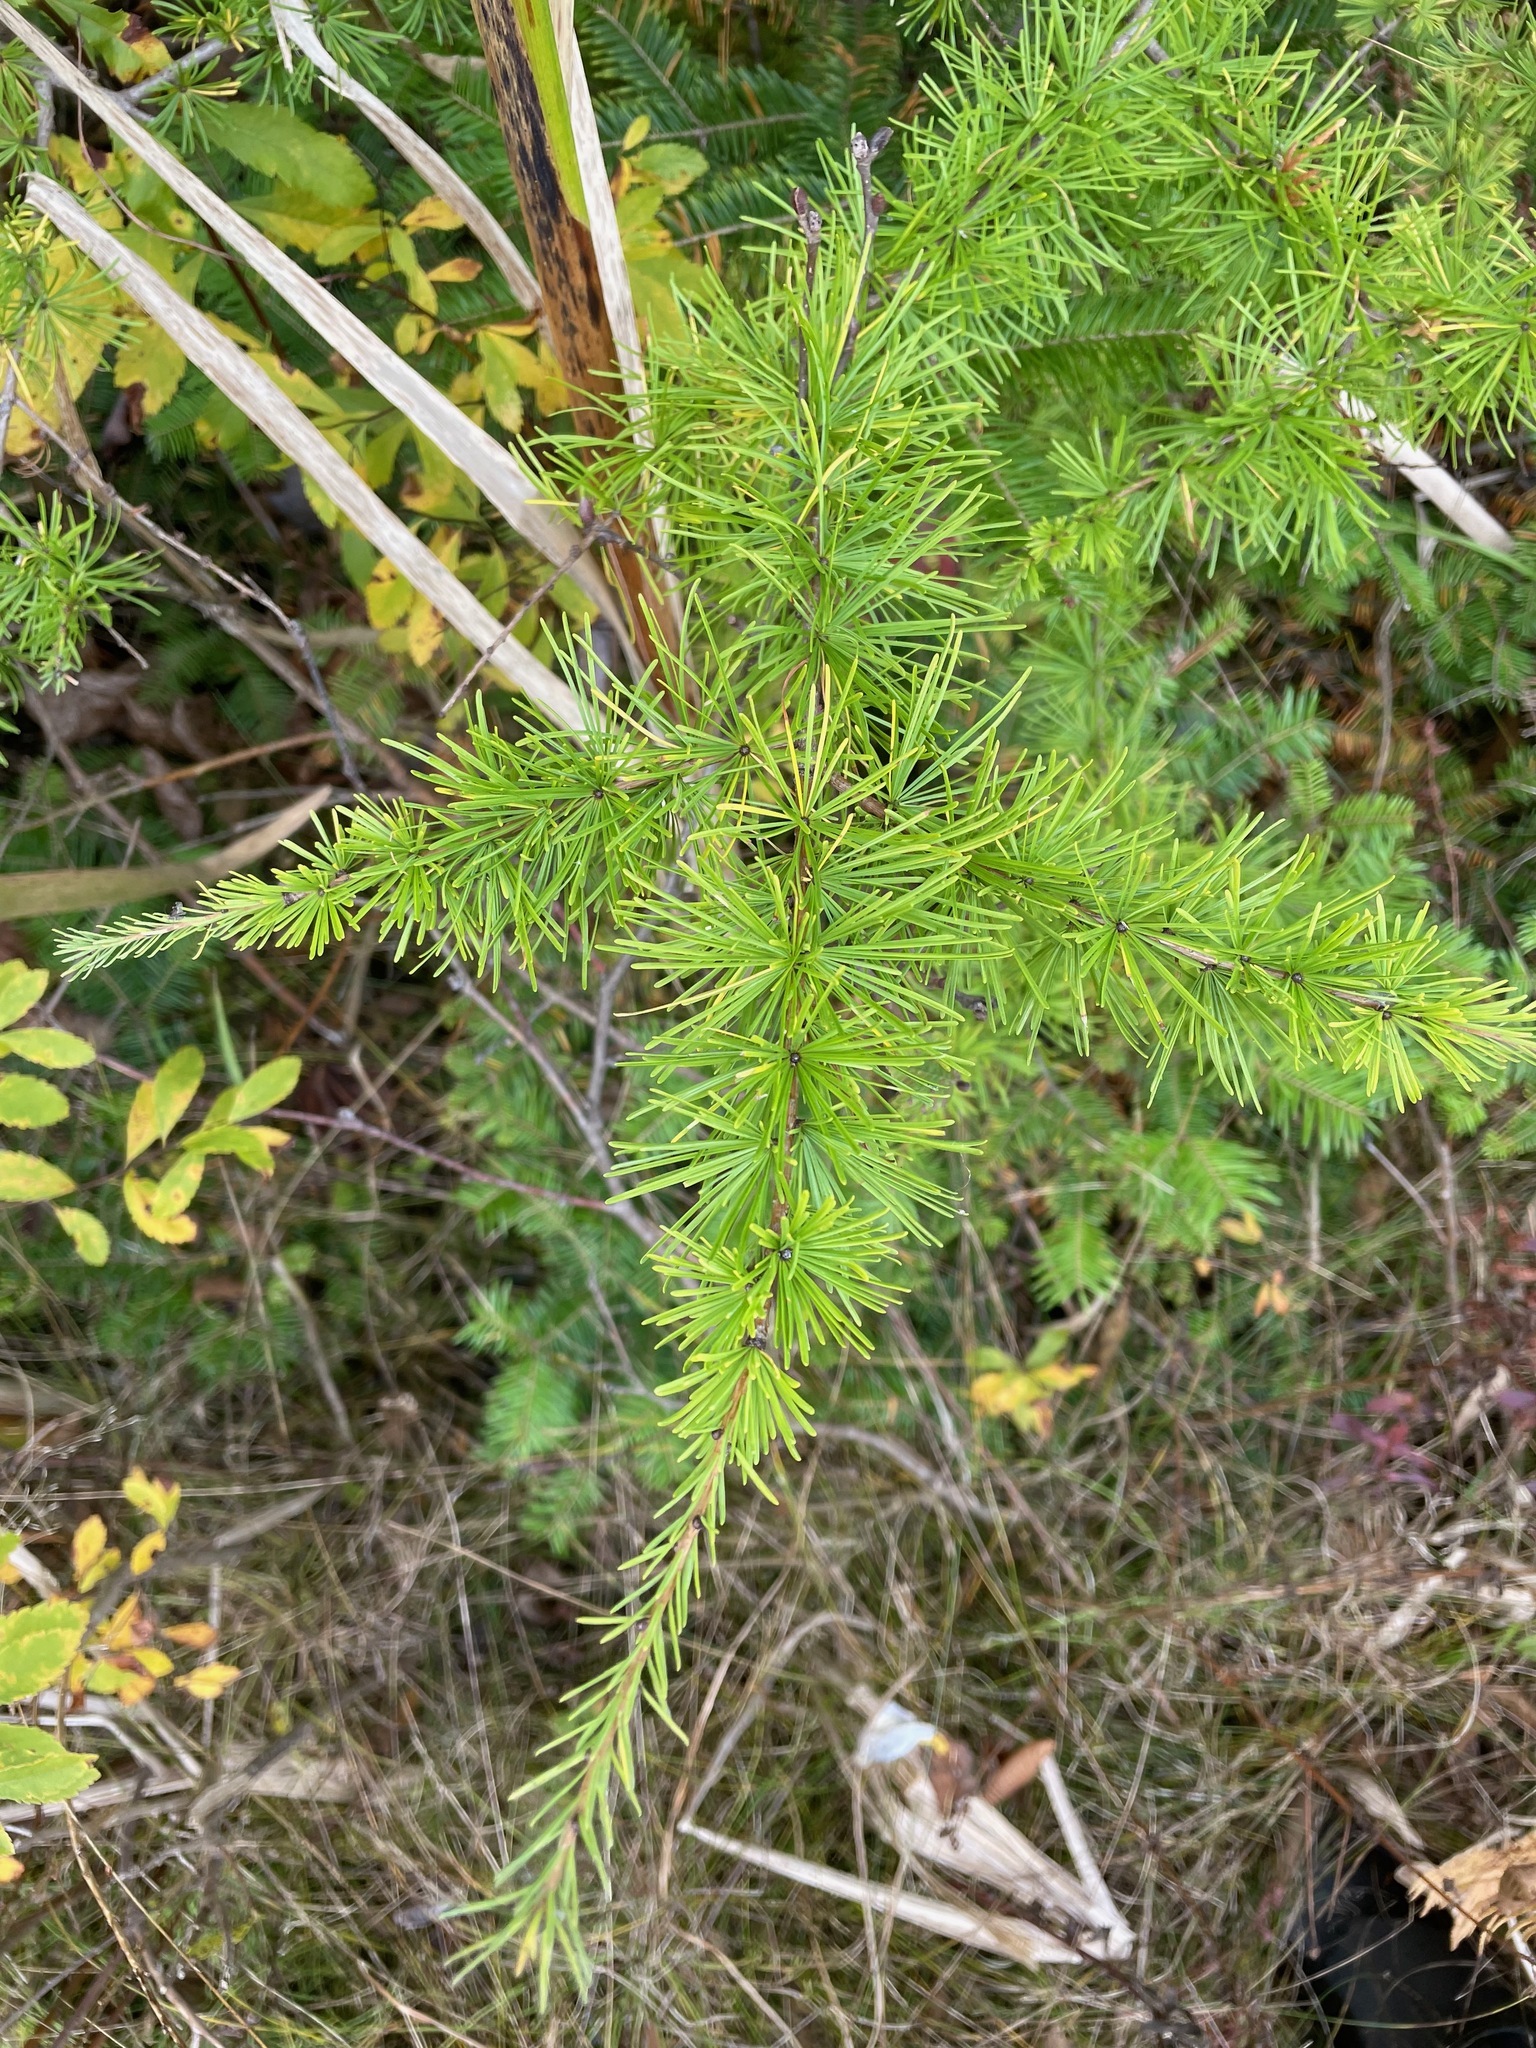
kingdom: Plantae
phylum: Tracheophyta
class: Pinopsida
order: Pinales
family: Pinaceae
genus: Larix
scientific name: Larix laricina
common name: American larch
